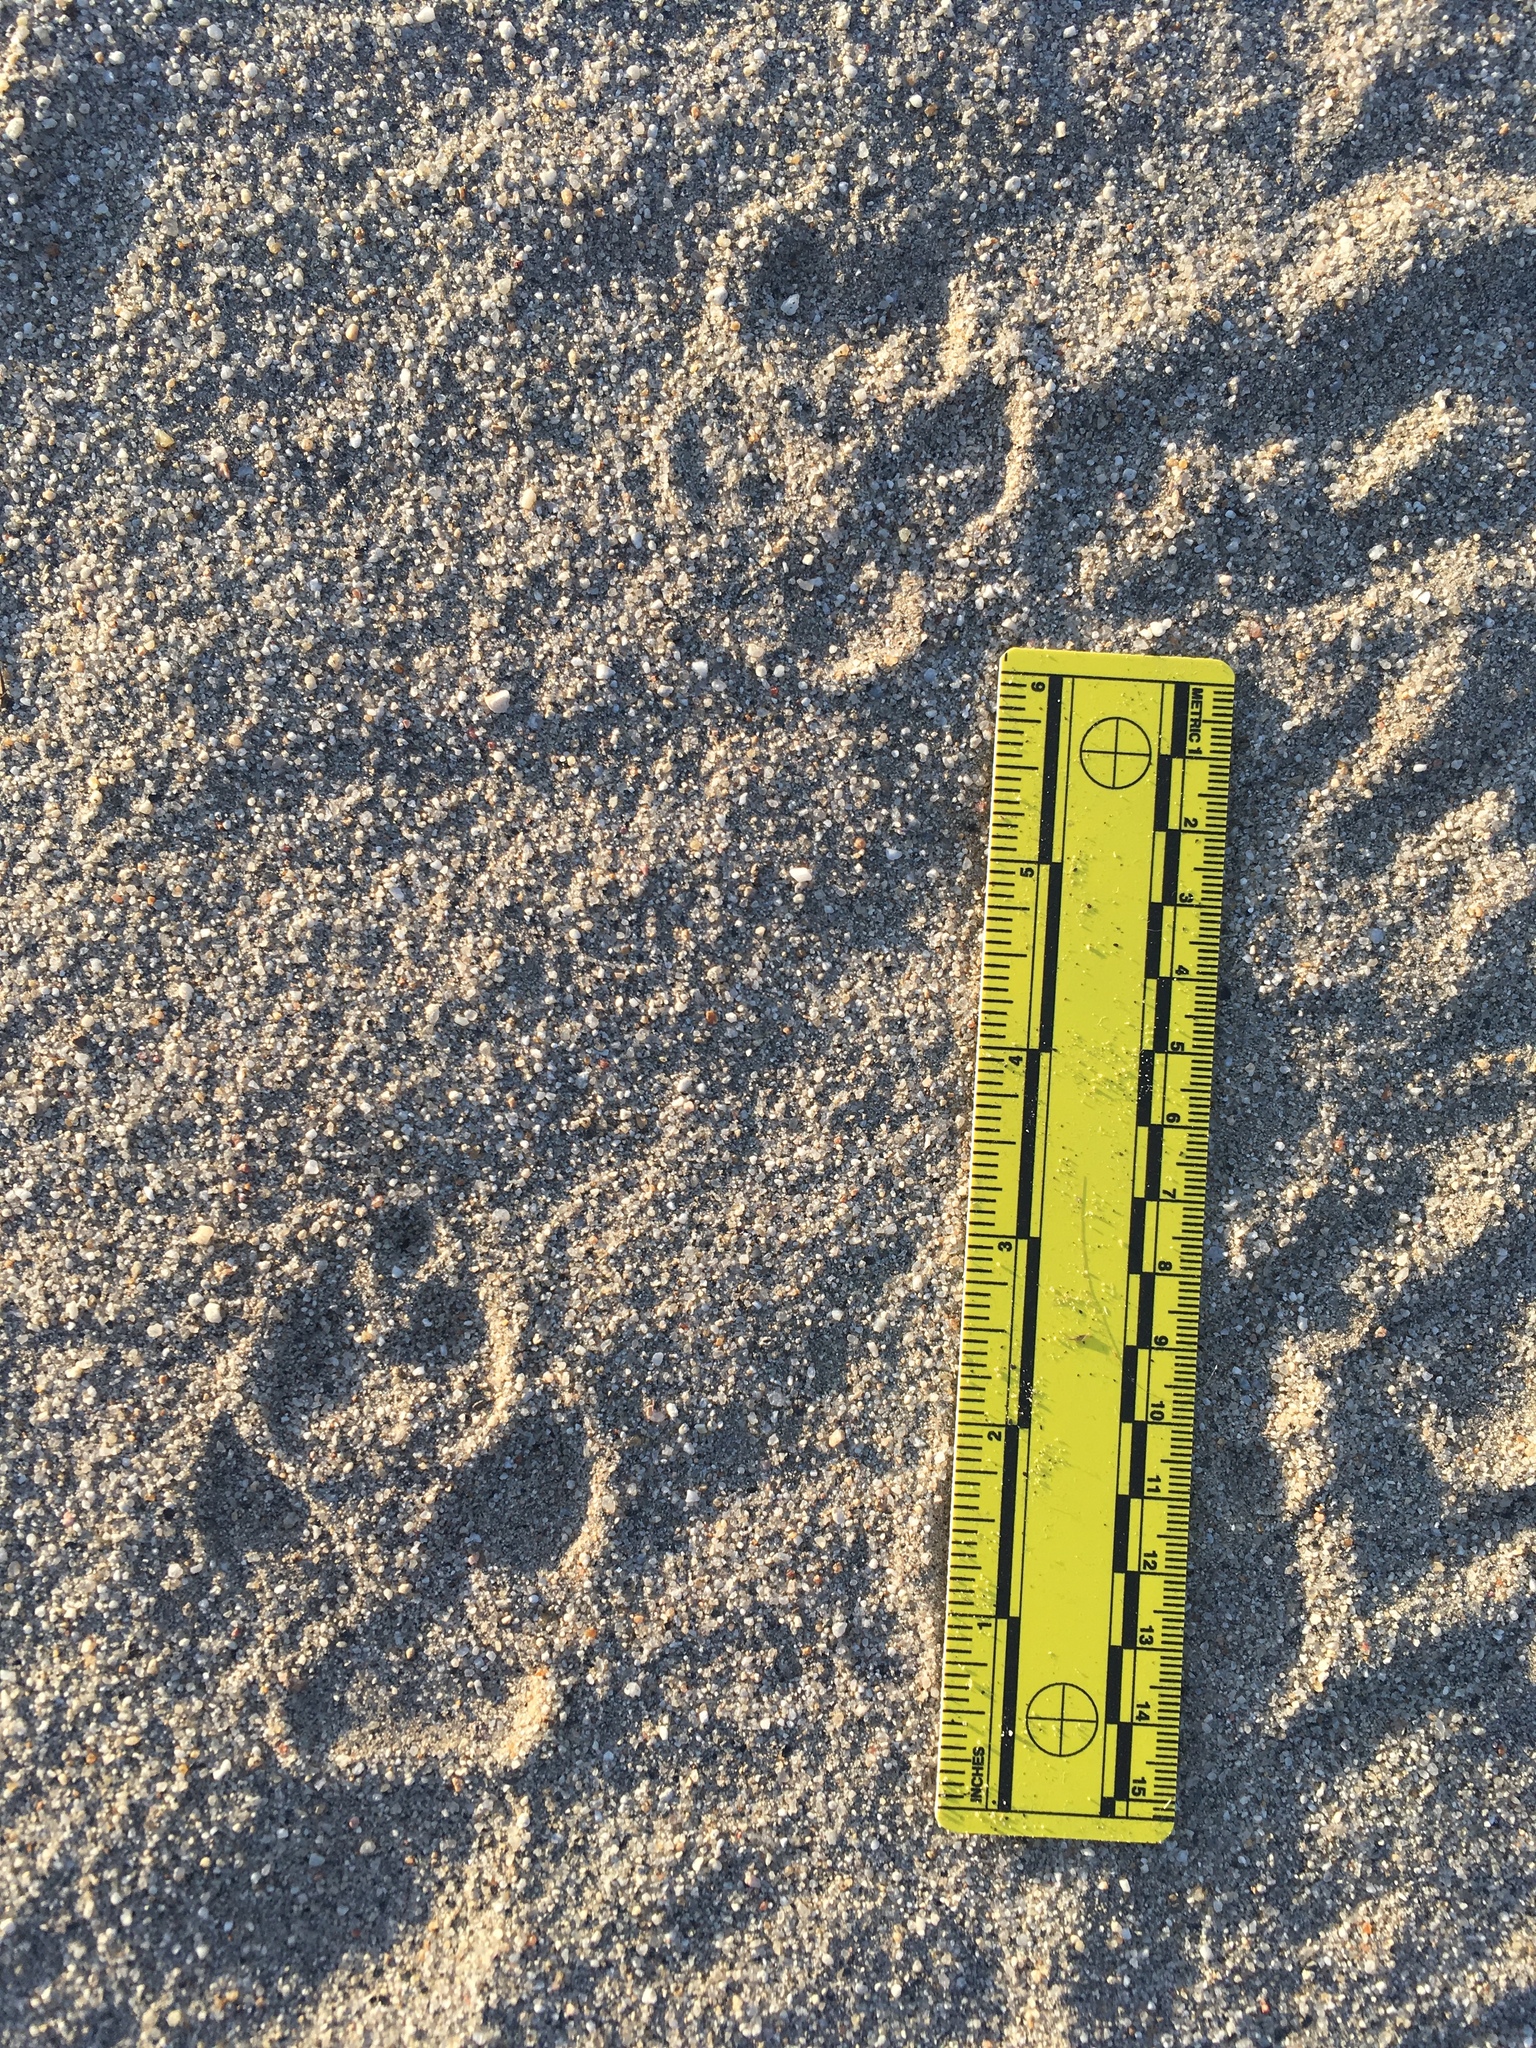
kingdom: Animalia
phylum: Chordata
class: Mammalia
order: Carnivora
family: Canidae
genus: Canis
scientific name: Canis latrans
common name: Coyote
